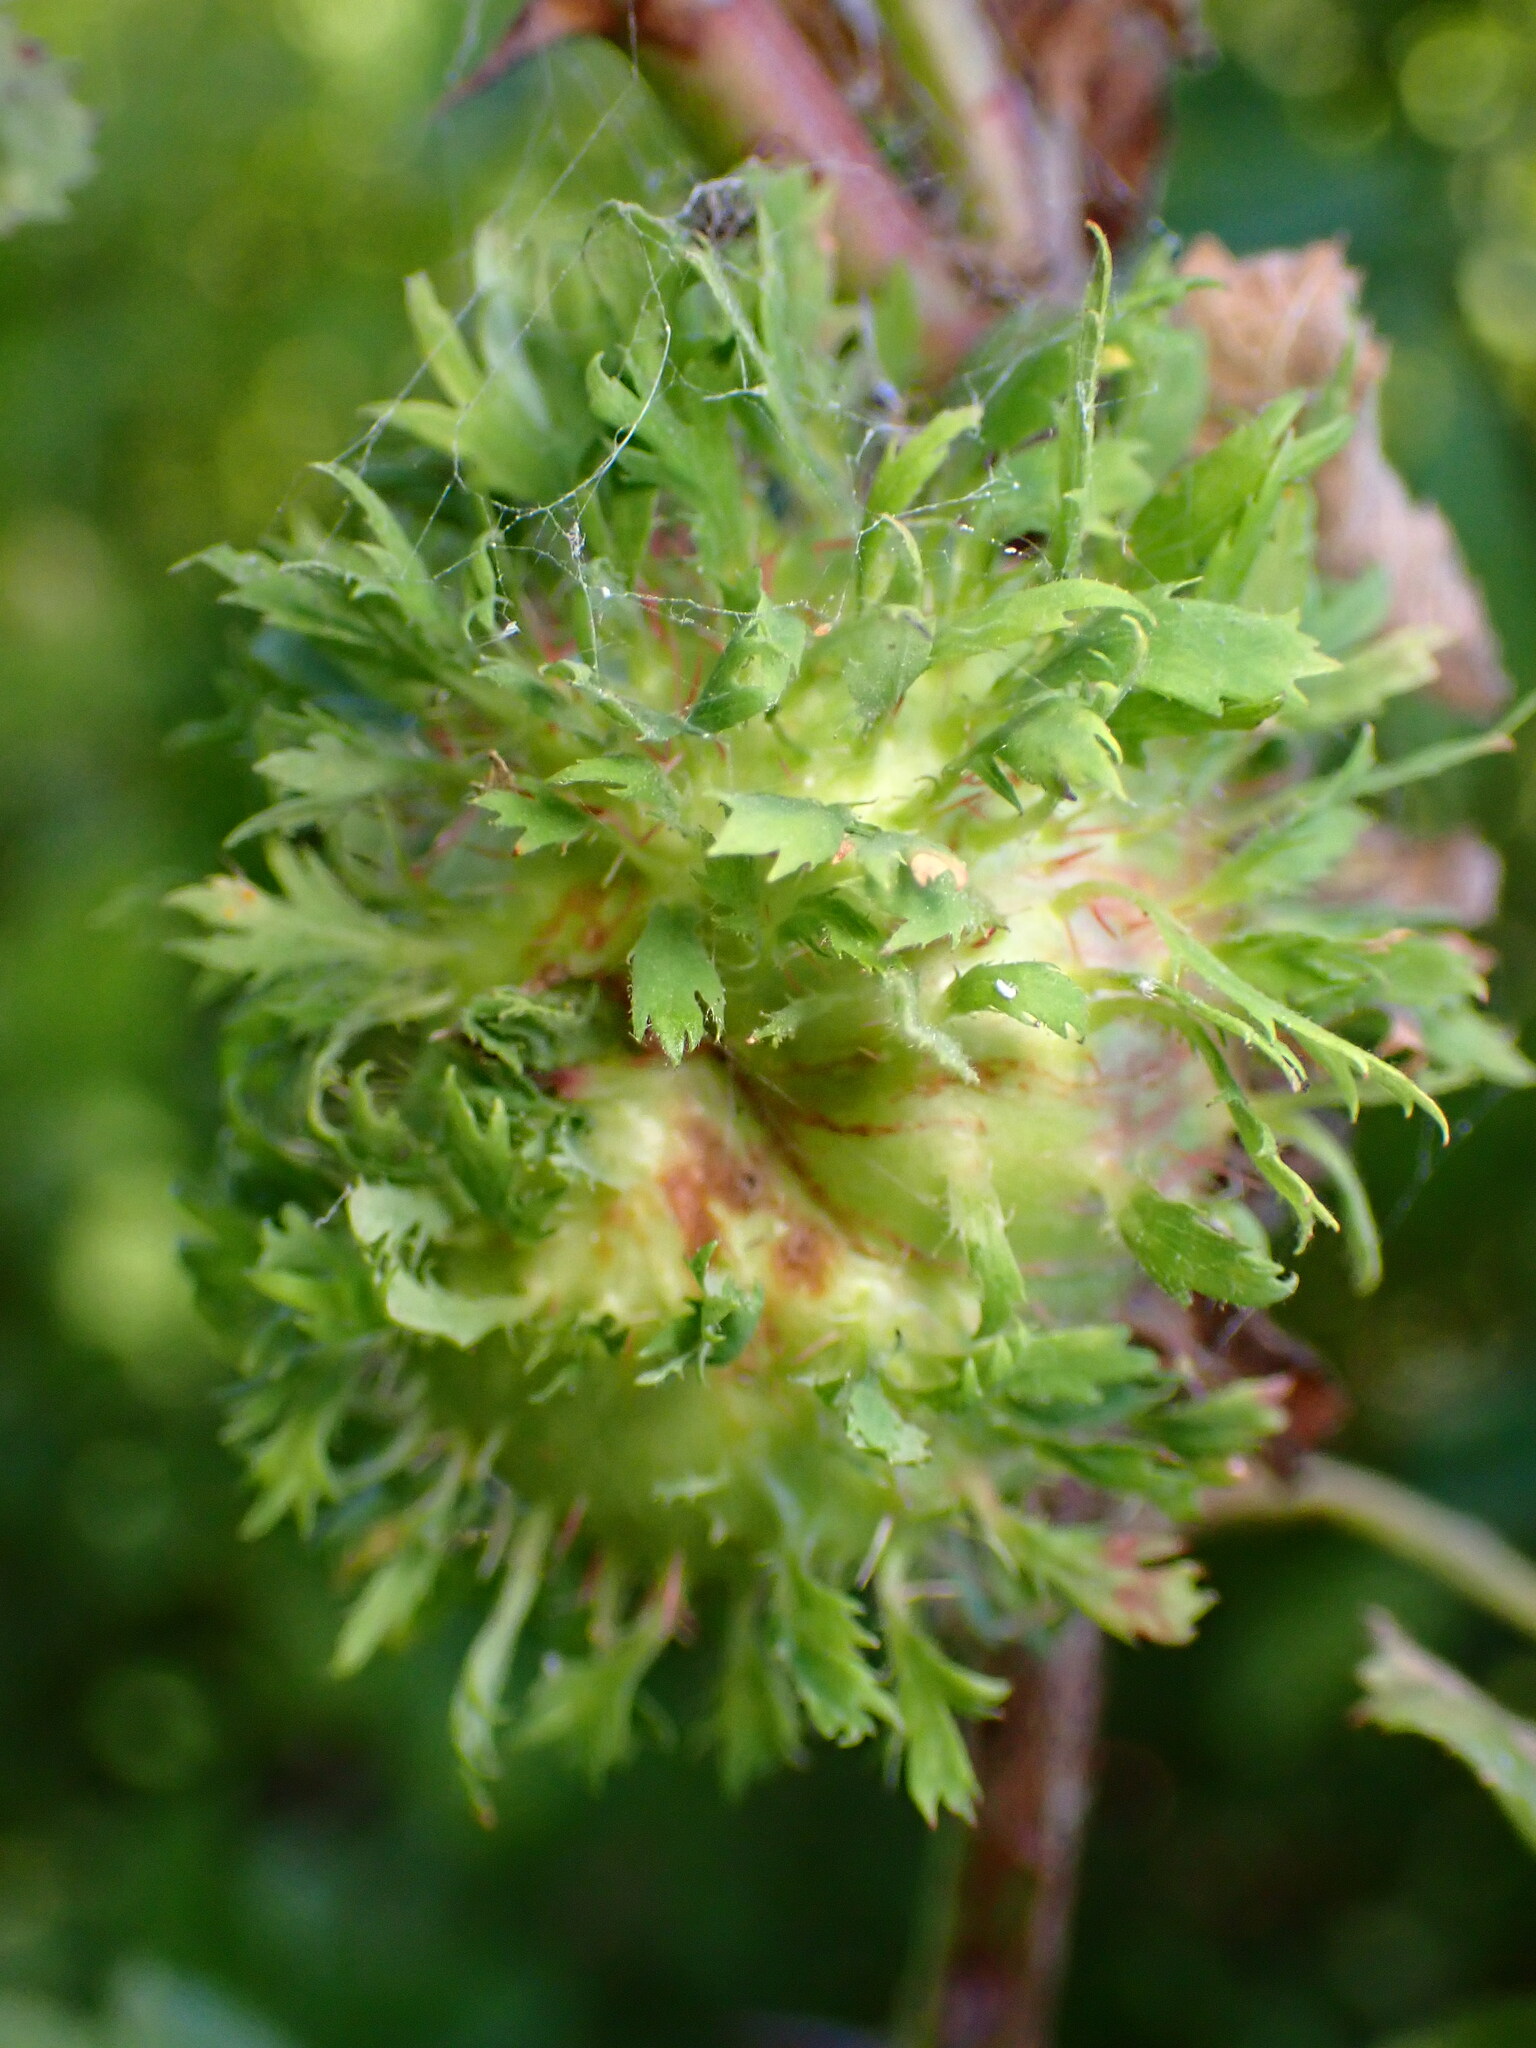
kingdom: Animalia
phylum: Arthropoda
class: Insecta
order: Hymenoptera
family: Cynipidae
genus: Diplolepis
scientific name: Diplolepis californica
